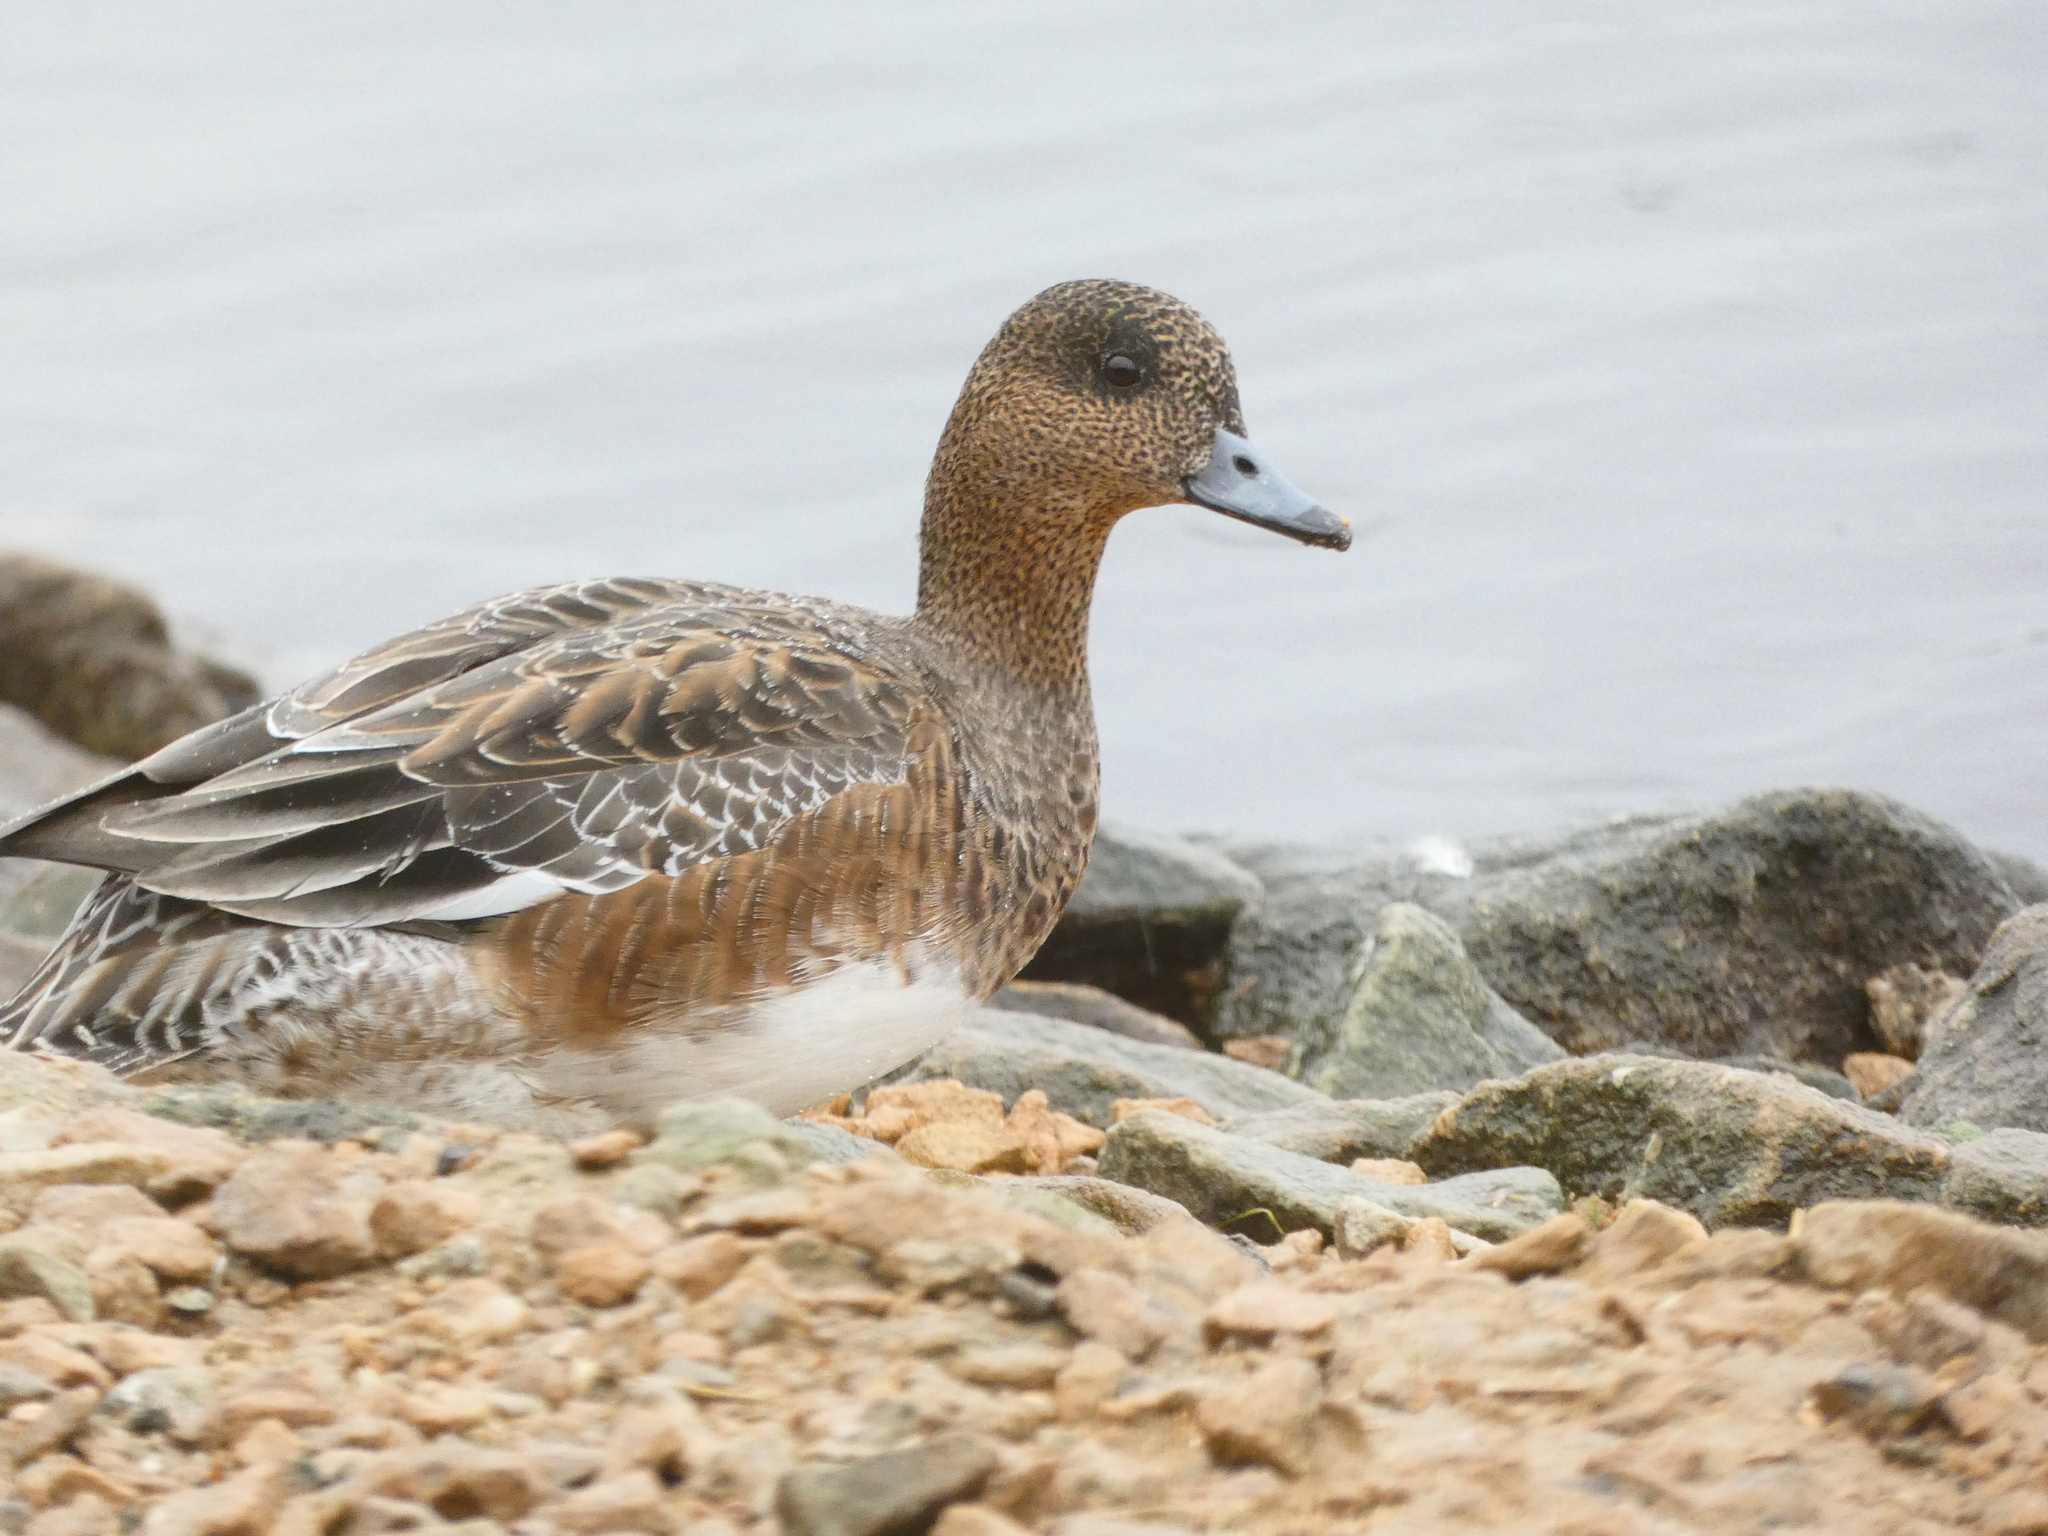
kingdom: Animalia
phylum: Chordata
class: Aves
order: Anseriformes
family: Anatidae
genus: Mareca
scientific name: Mareca penelope
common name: Eurasian wigeon
